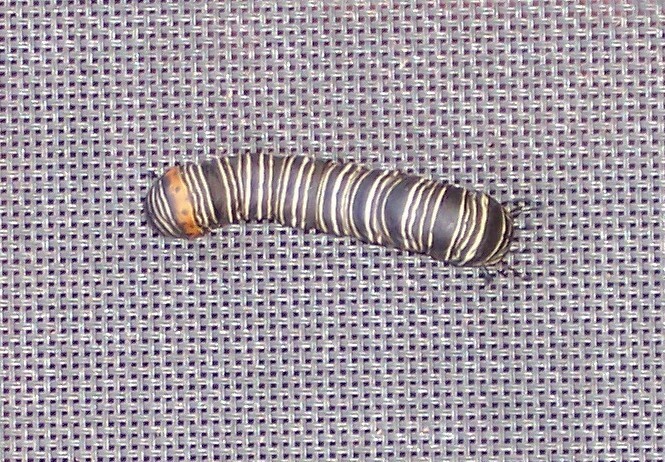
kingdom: Animalia
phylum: Arthropoda
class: Insecta
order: Lepidoptera
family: Noctuidae
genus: Xerociris
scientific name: Xerociris wilsonii
